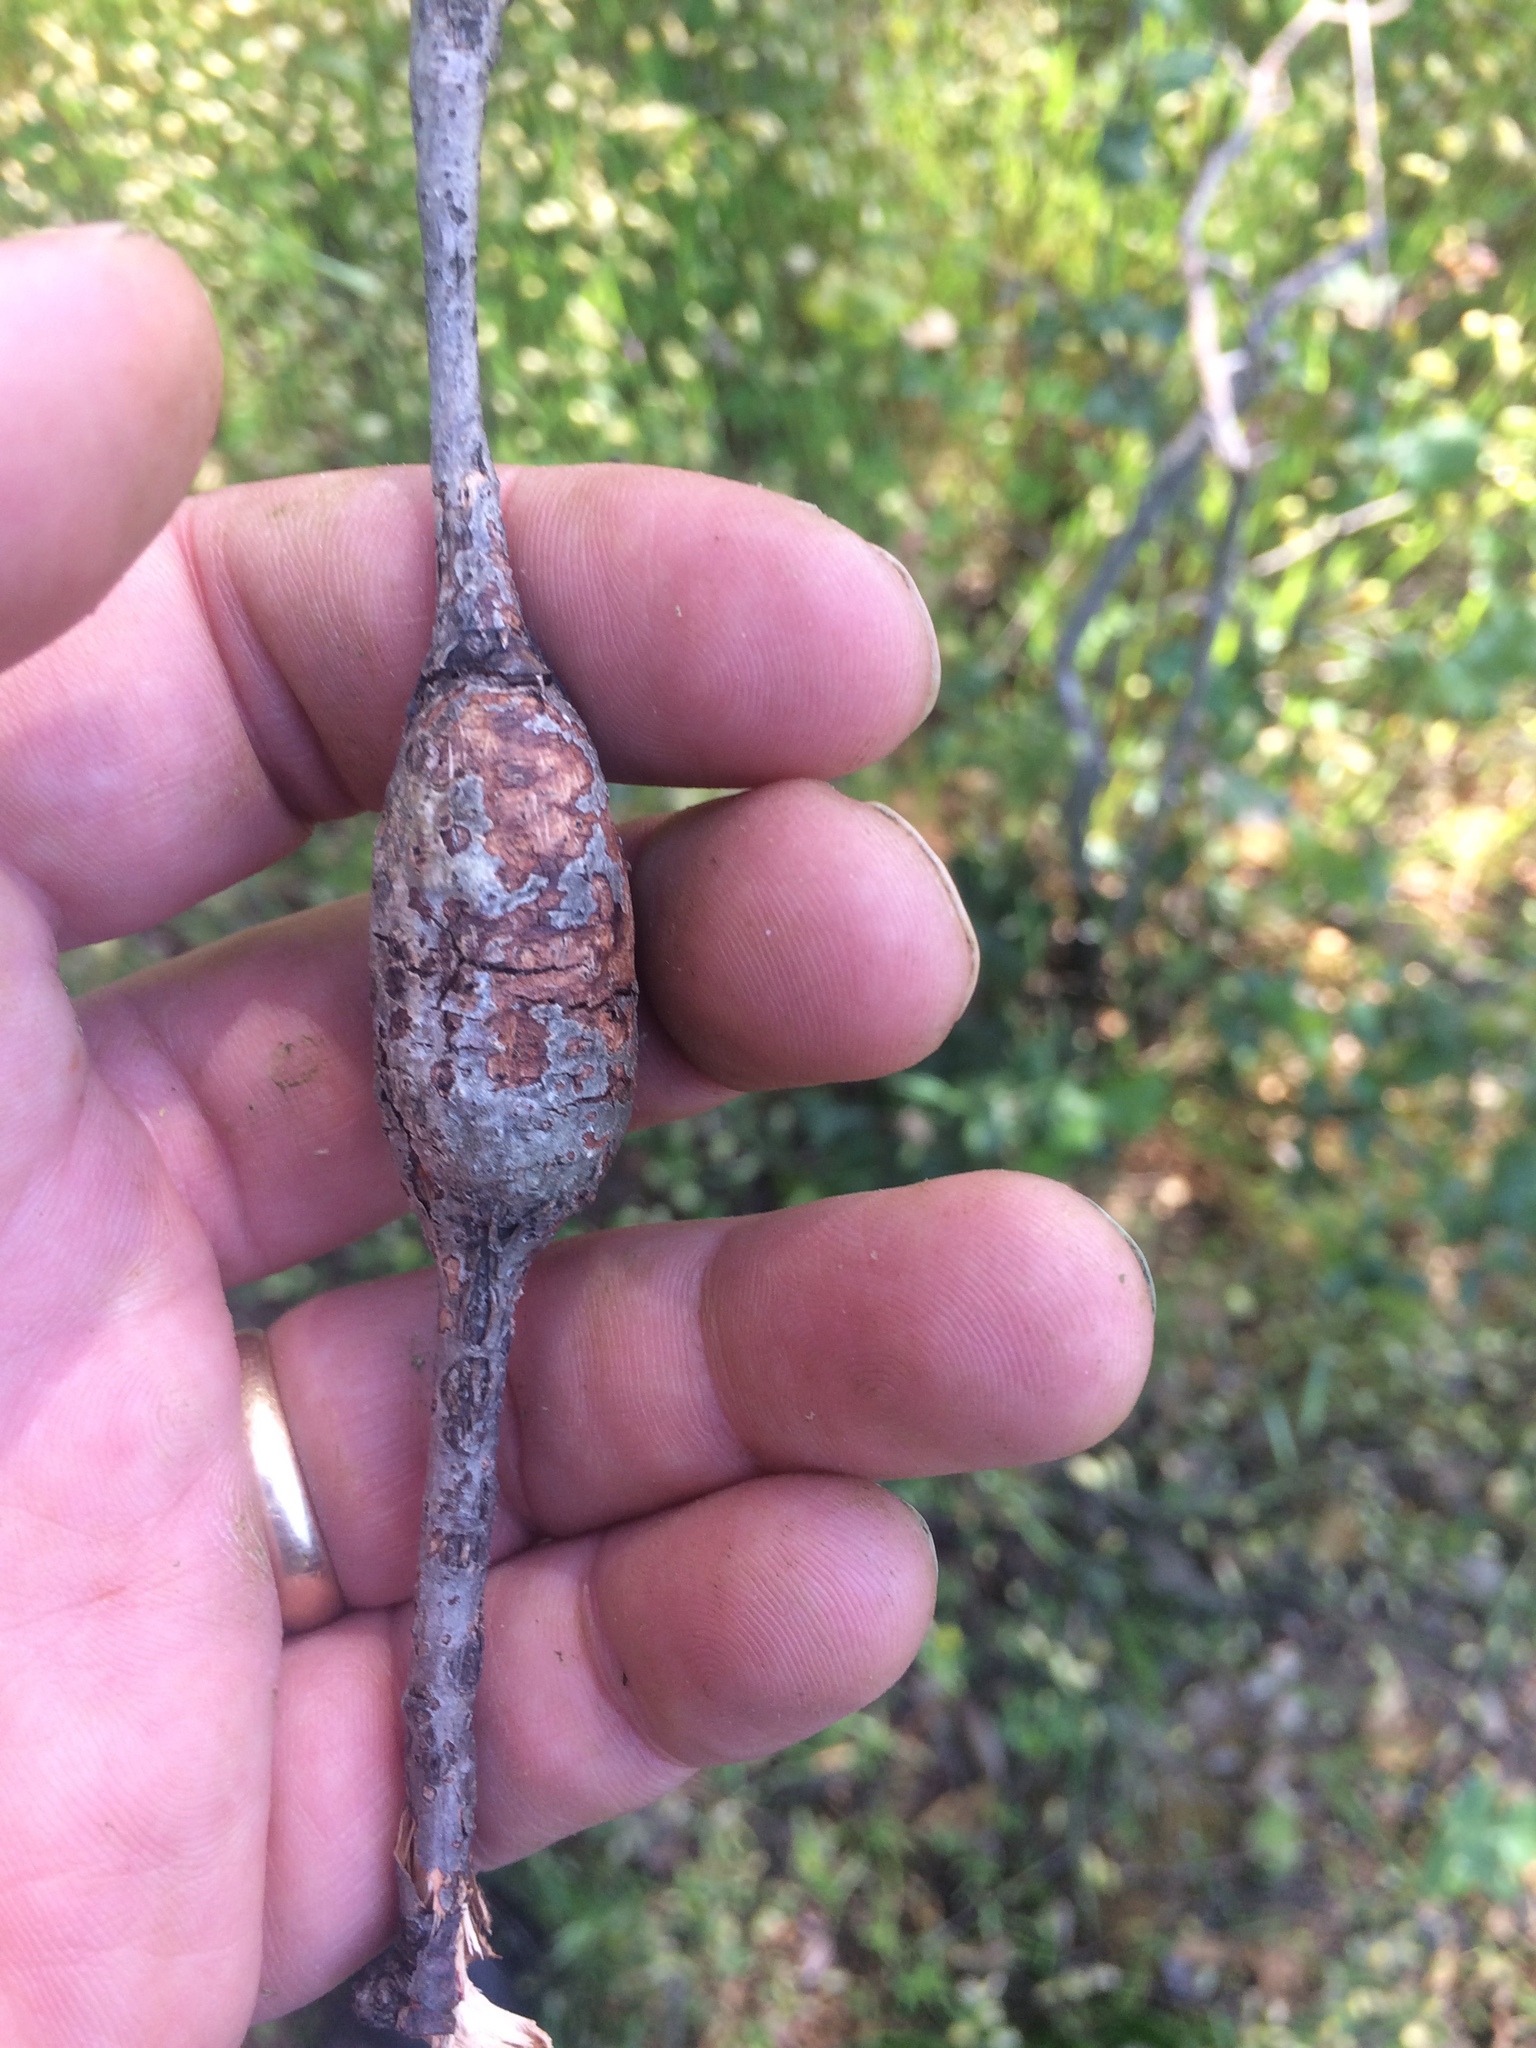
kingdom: Animalia
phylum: Arthropoda
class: Insecta
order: Hymenoptera
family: Cynipidae
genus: Callirhytis
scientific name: Callirhytis
